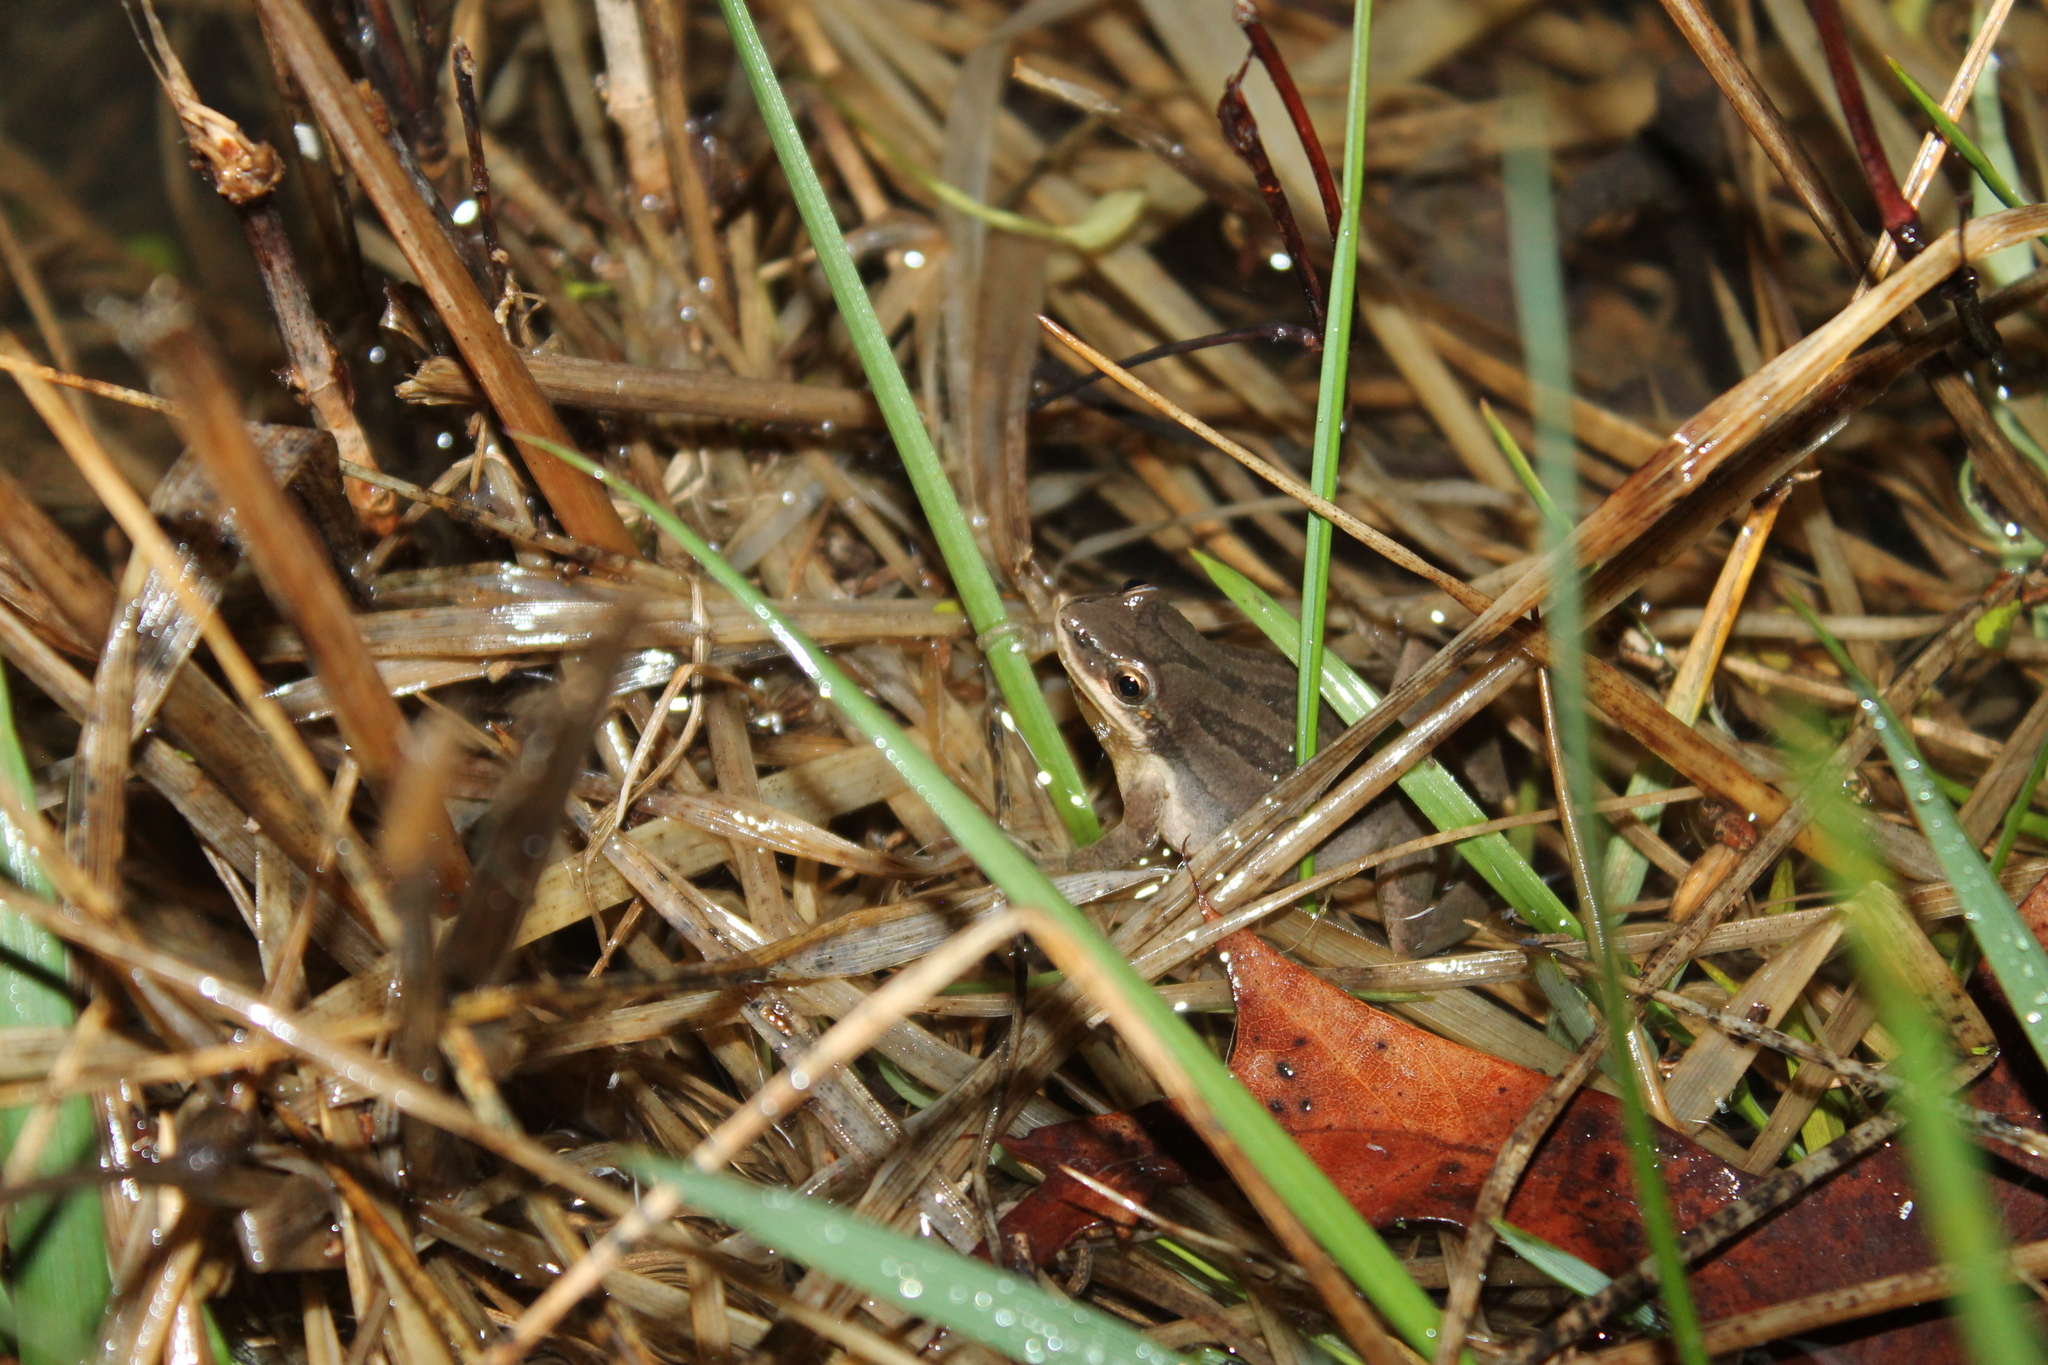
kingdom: Animalia
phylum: Chordata
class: Amphibia
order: Anura
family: Hylidae
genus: Pseudacris
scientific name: Pseudacris feriarum
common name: Upland chorus frog
